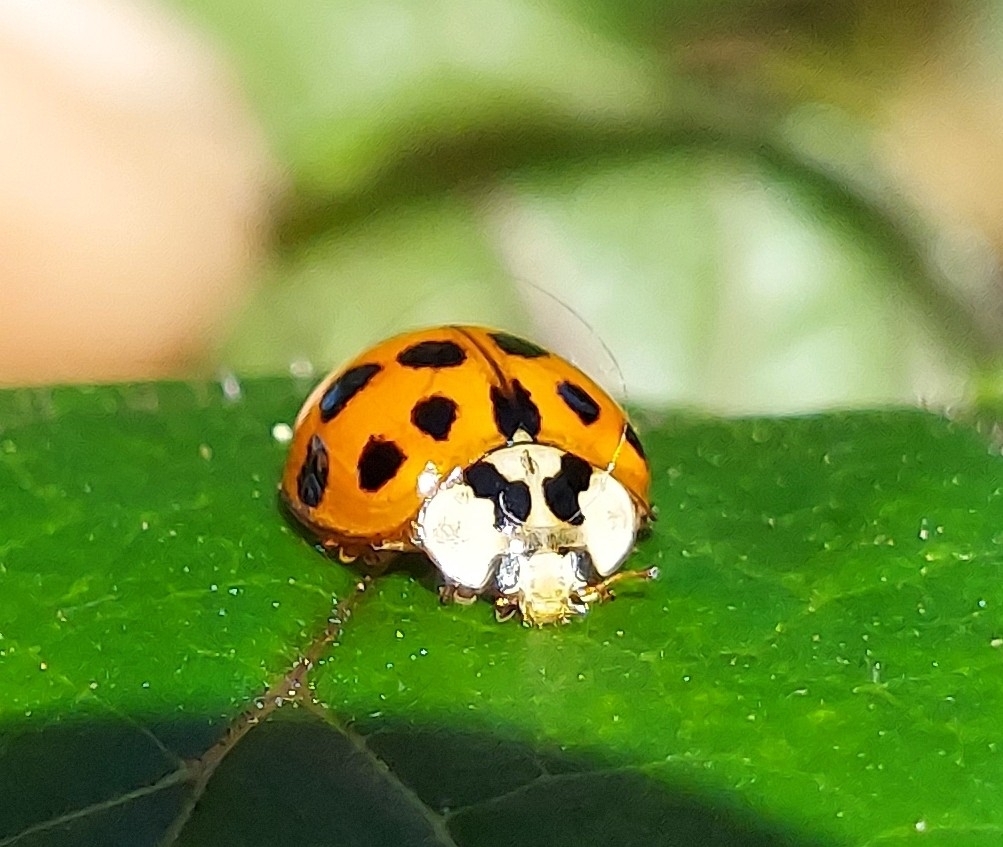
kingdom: Animalia
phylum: Arthropoda
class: Insecta
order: Coleoptera
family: Coccinellidae
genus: Harmonia
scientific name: Harmonia axyridis
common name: Harlequin ladybird
